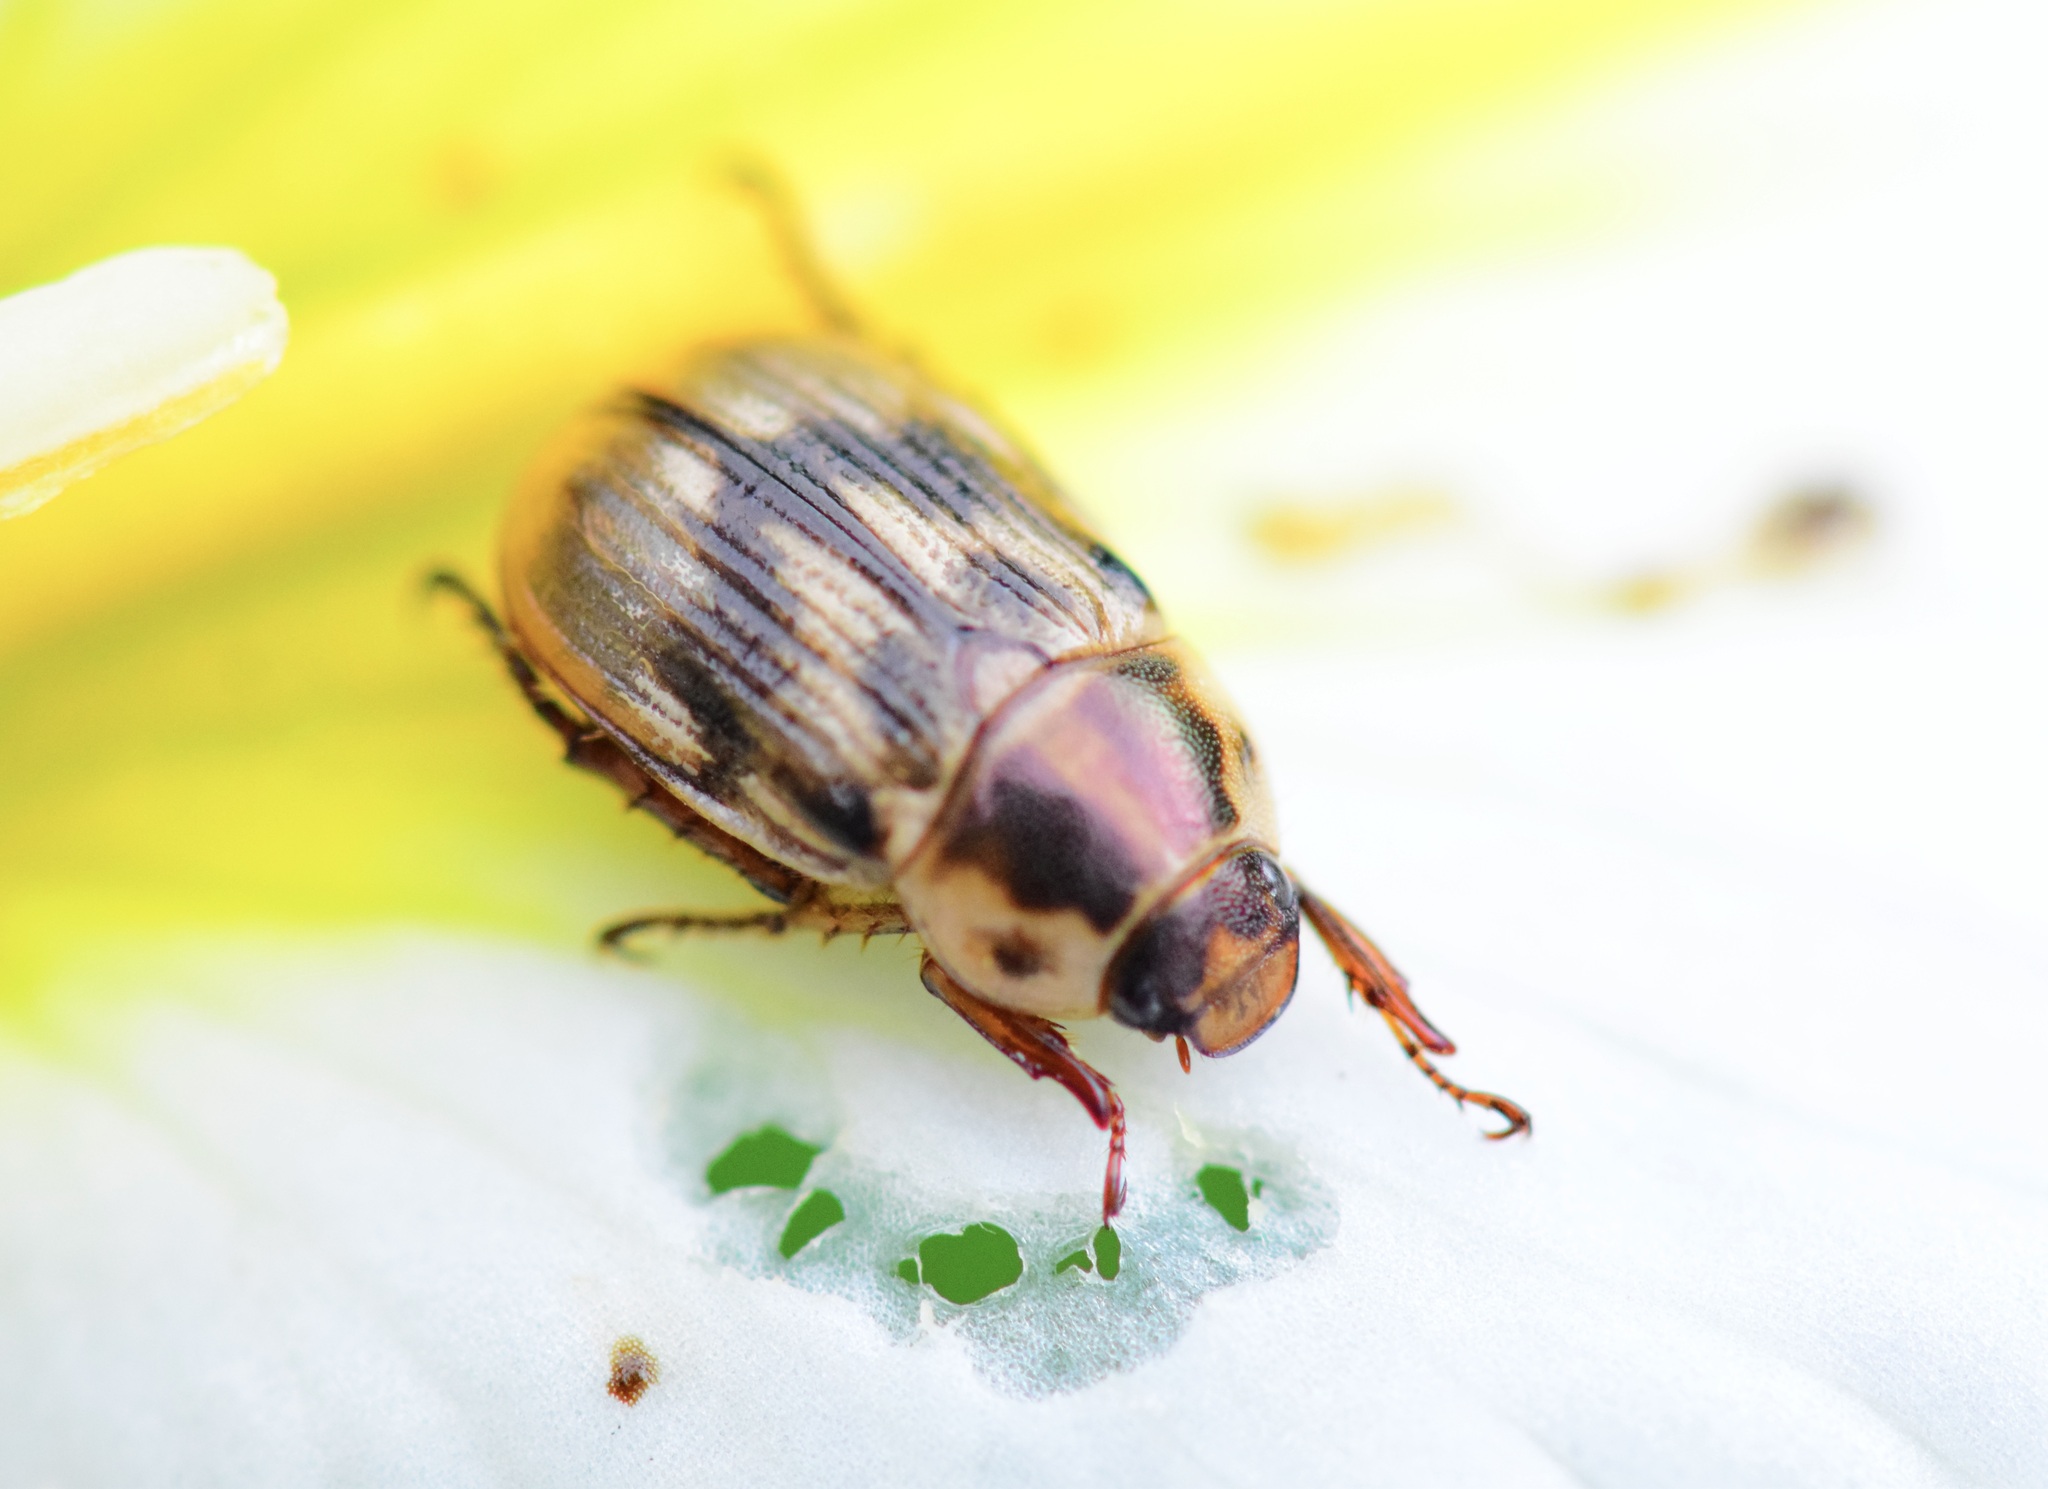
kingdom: Animalia
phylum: Arthropoda
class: Insecta
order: Coleoptera
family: Scarabaeidae
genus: Exomala
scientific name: Exomala orientalis
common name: Oriental beetle
